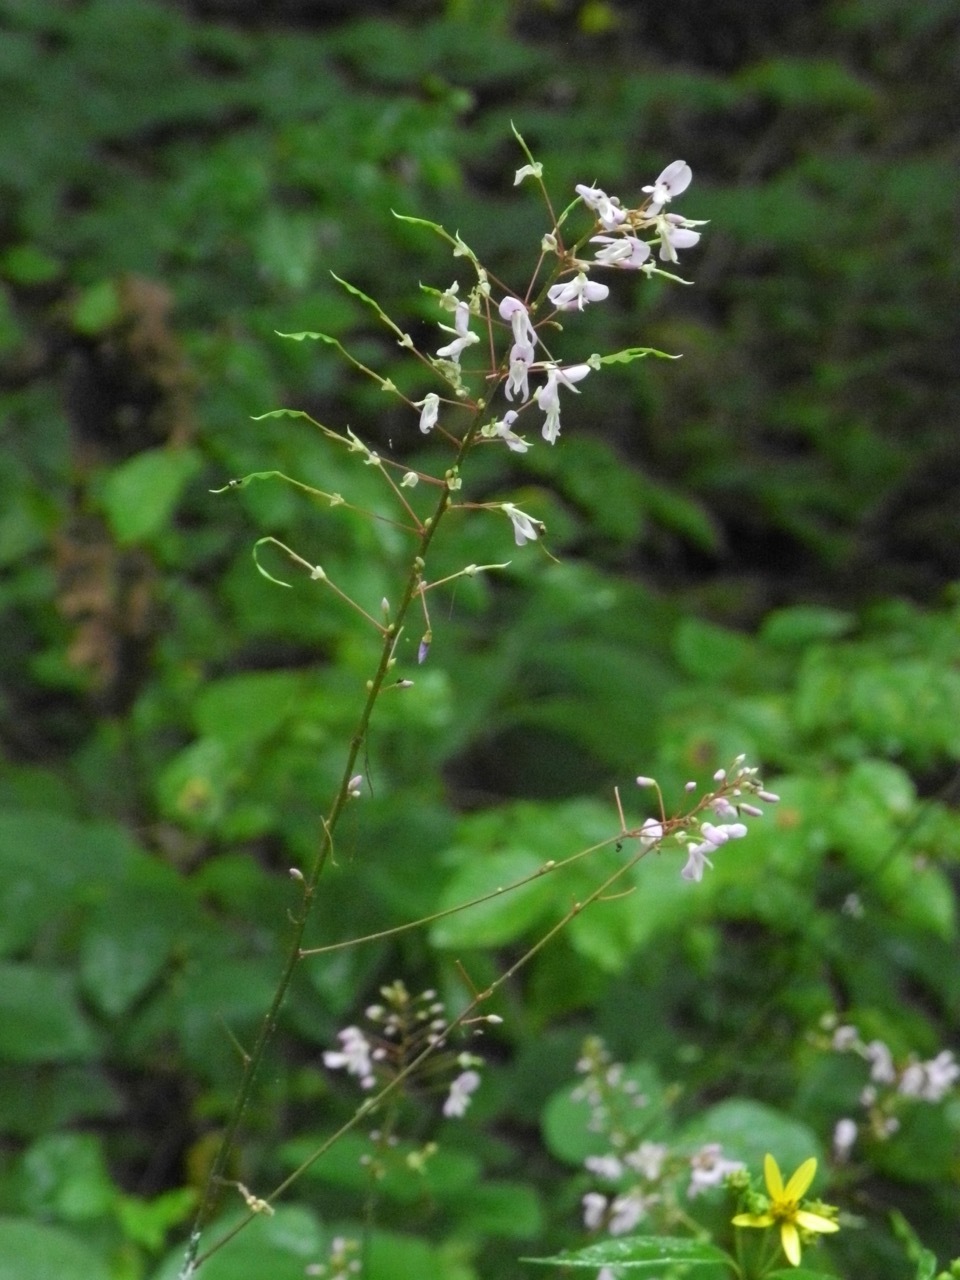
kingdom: Plantae
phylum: Tracheophyta
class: Magnoliopsida
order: Fabales
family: Fabaceae
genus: Hylodesmum
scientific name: Hylodesmum nudiflorum
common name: Bare-stemmed tick-trefoil
